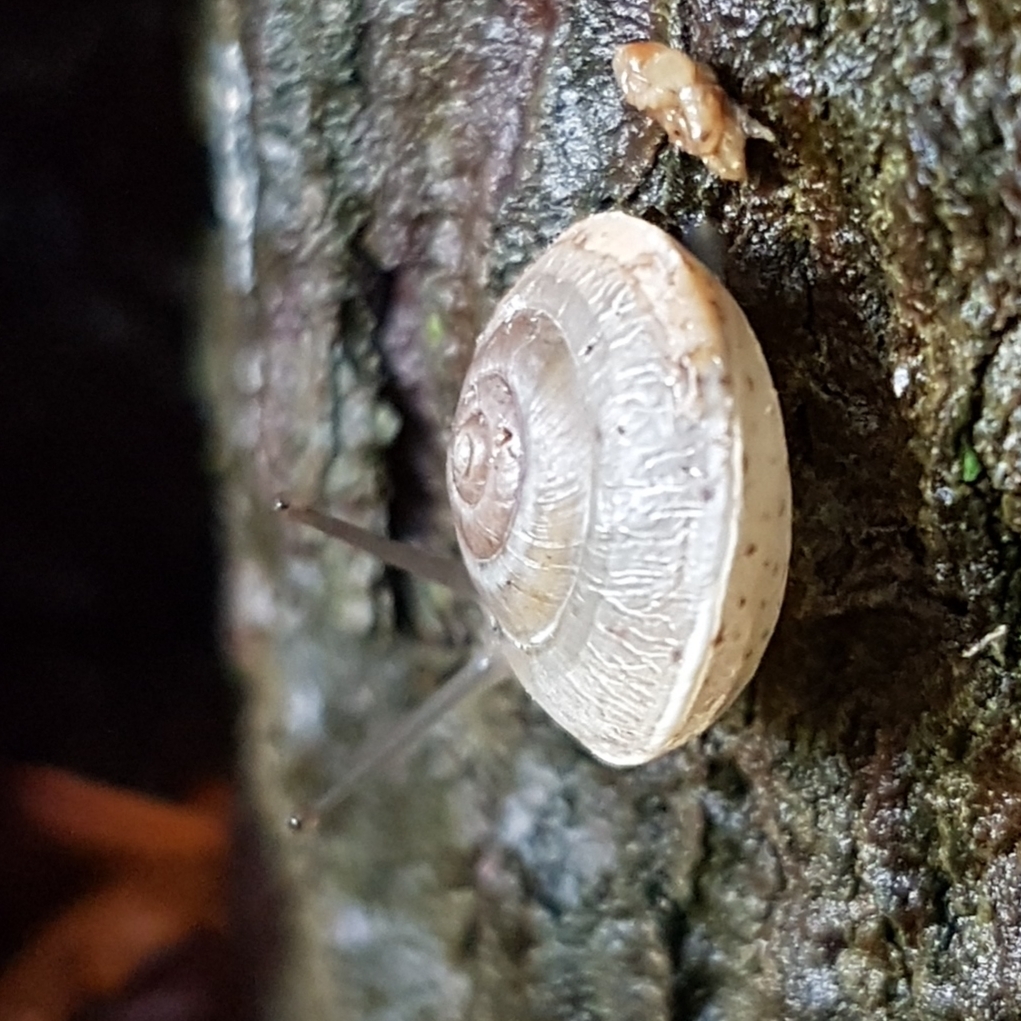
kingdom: Animalia
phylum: Mollusca
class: Gastropoda
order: Stylommatophora
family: Hygromiidae
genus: Hygromia
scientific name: Hygromia cinctella
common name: Girdled snail
